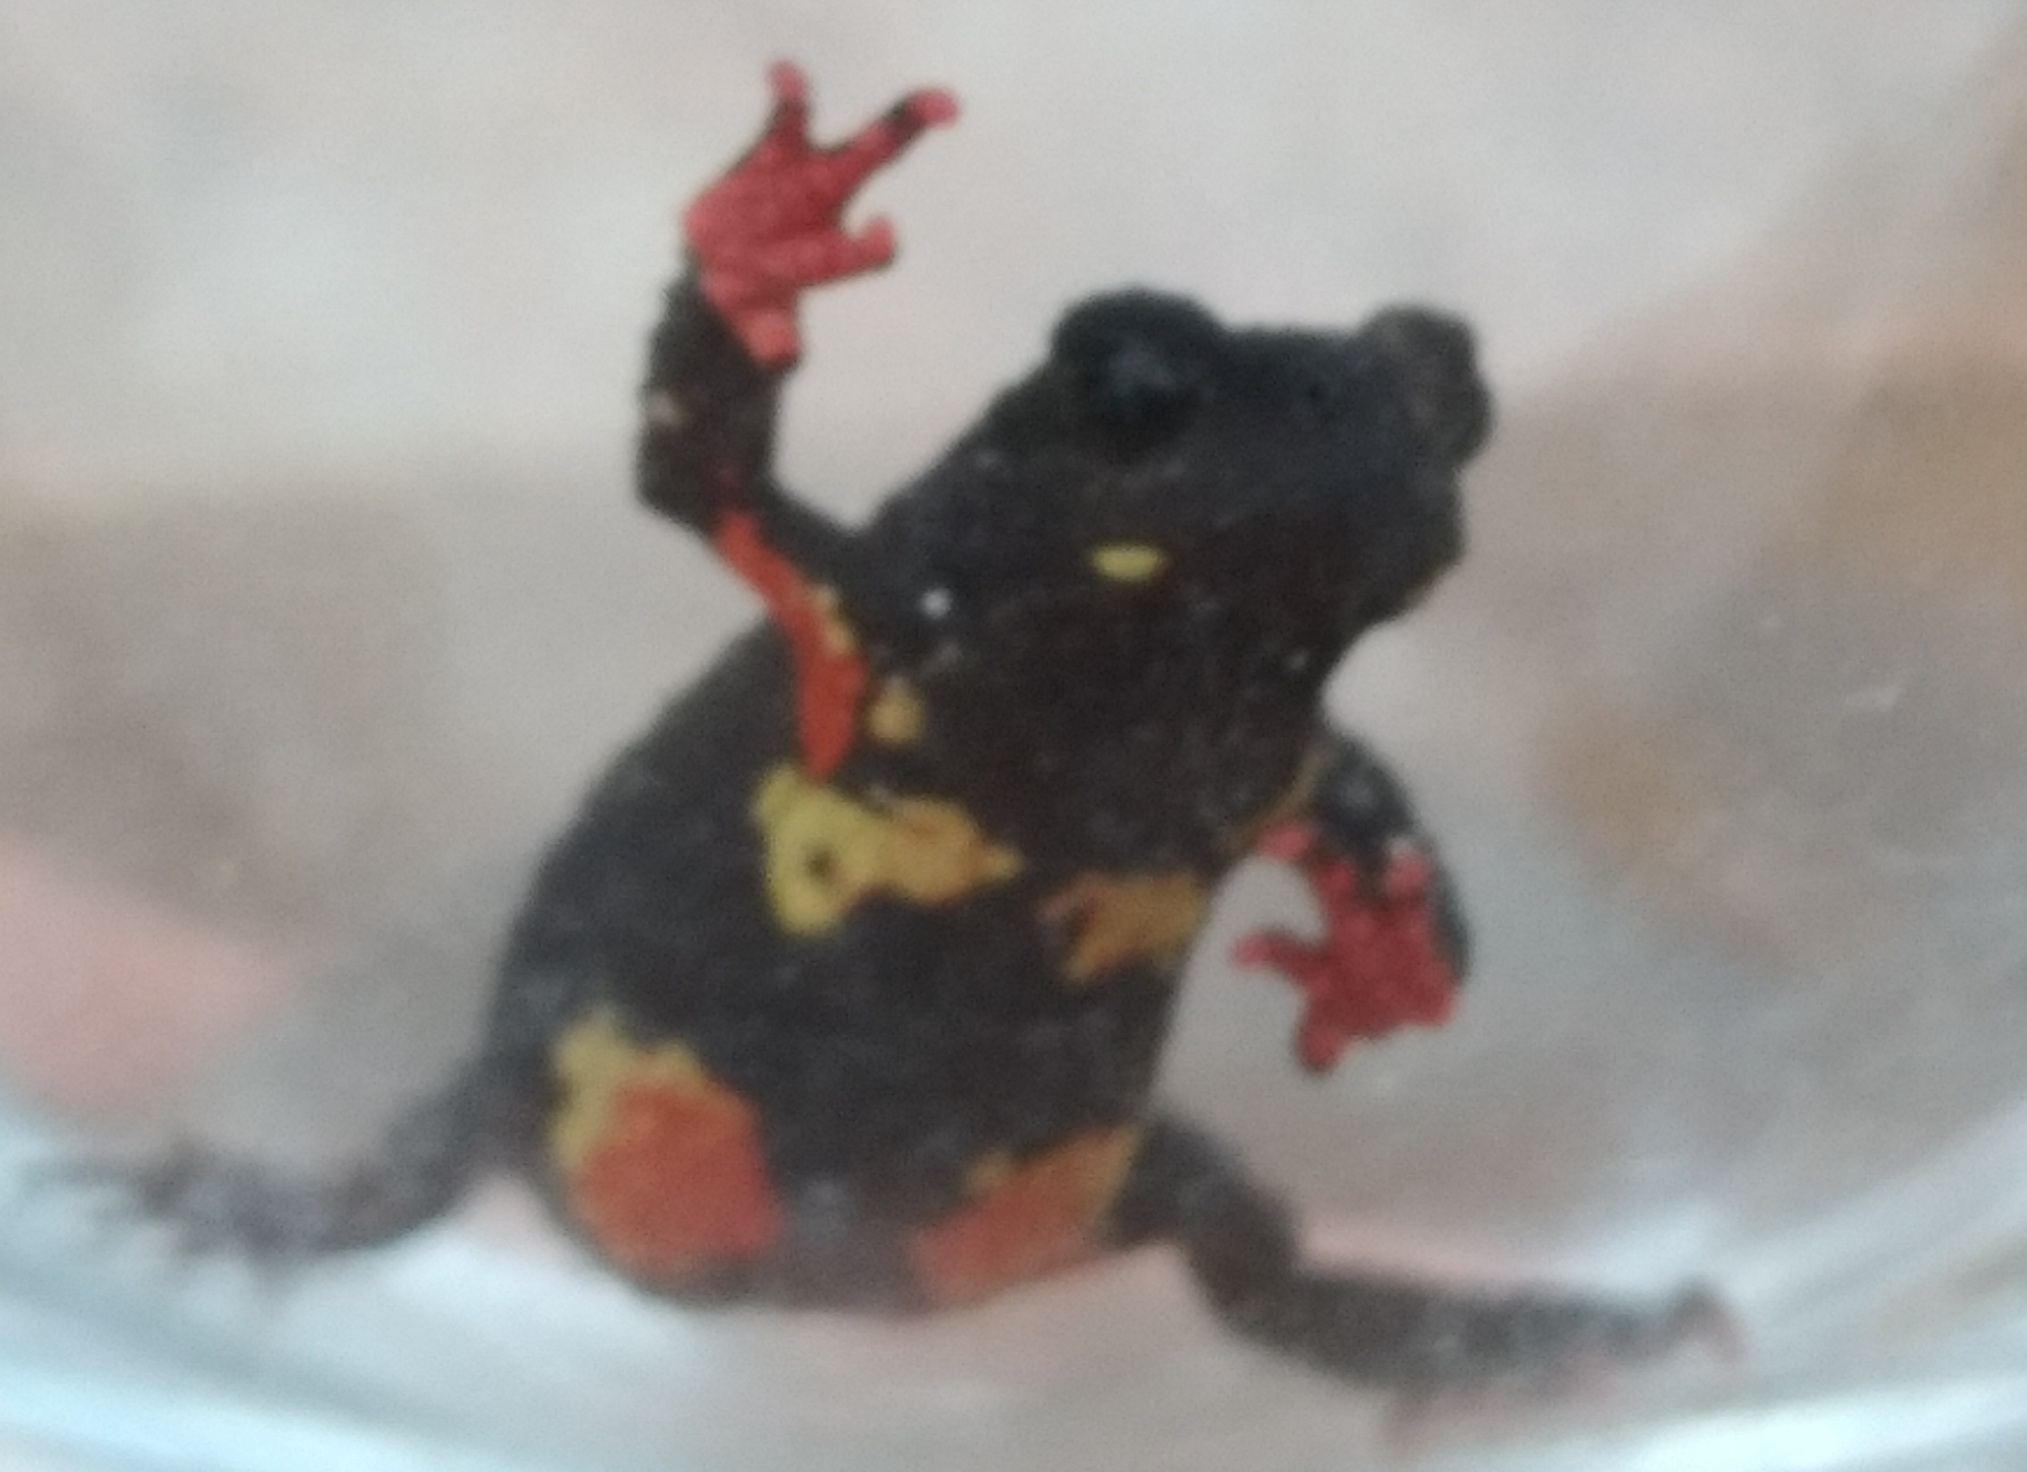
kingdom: Animalia
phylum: Chordata
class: Amphibia
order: Anura
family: Bufonidae
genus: Melanophryniscus
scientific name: Melanophryniscus atroluteus
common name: Uruguay red belly toad
